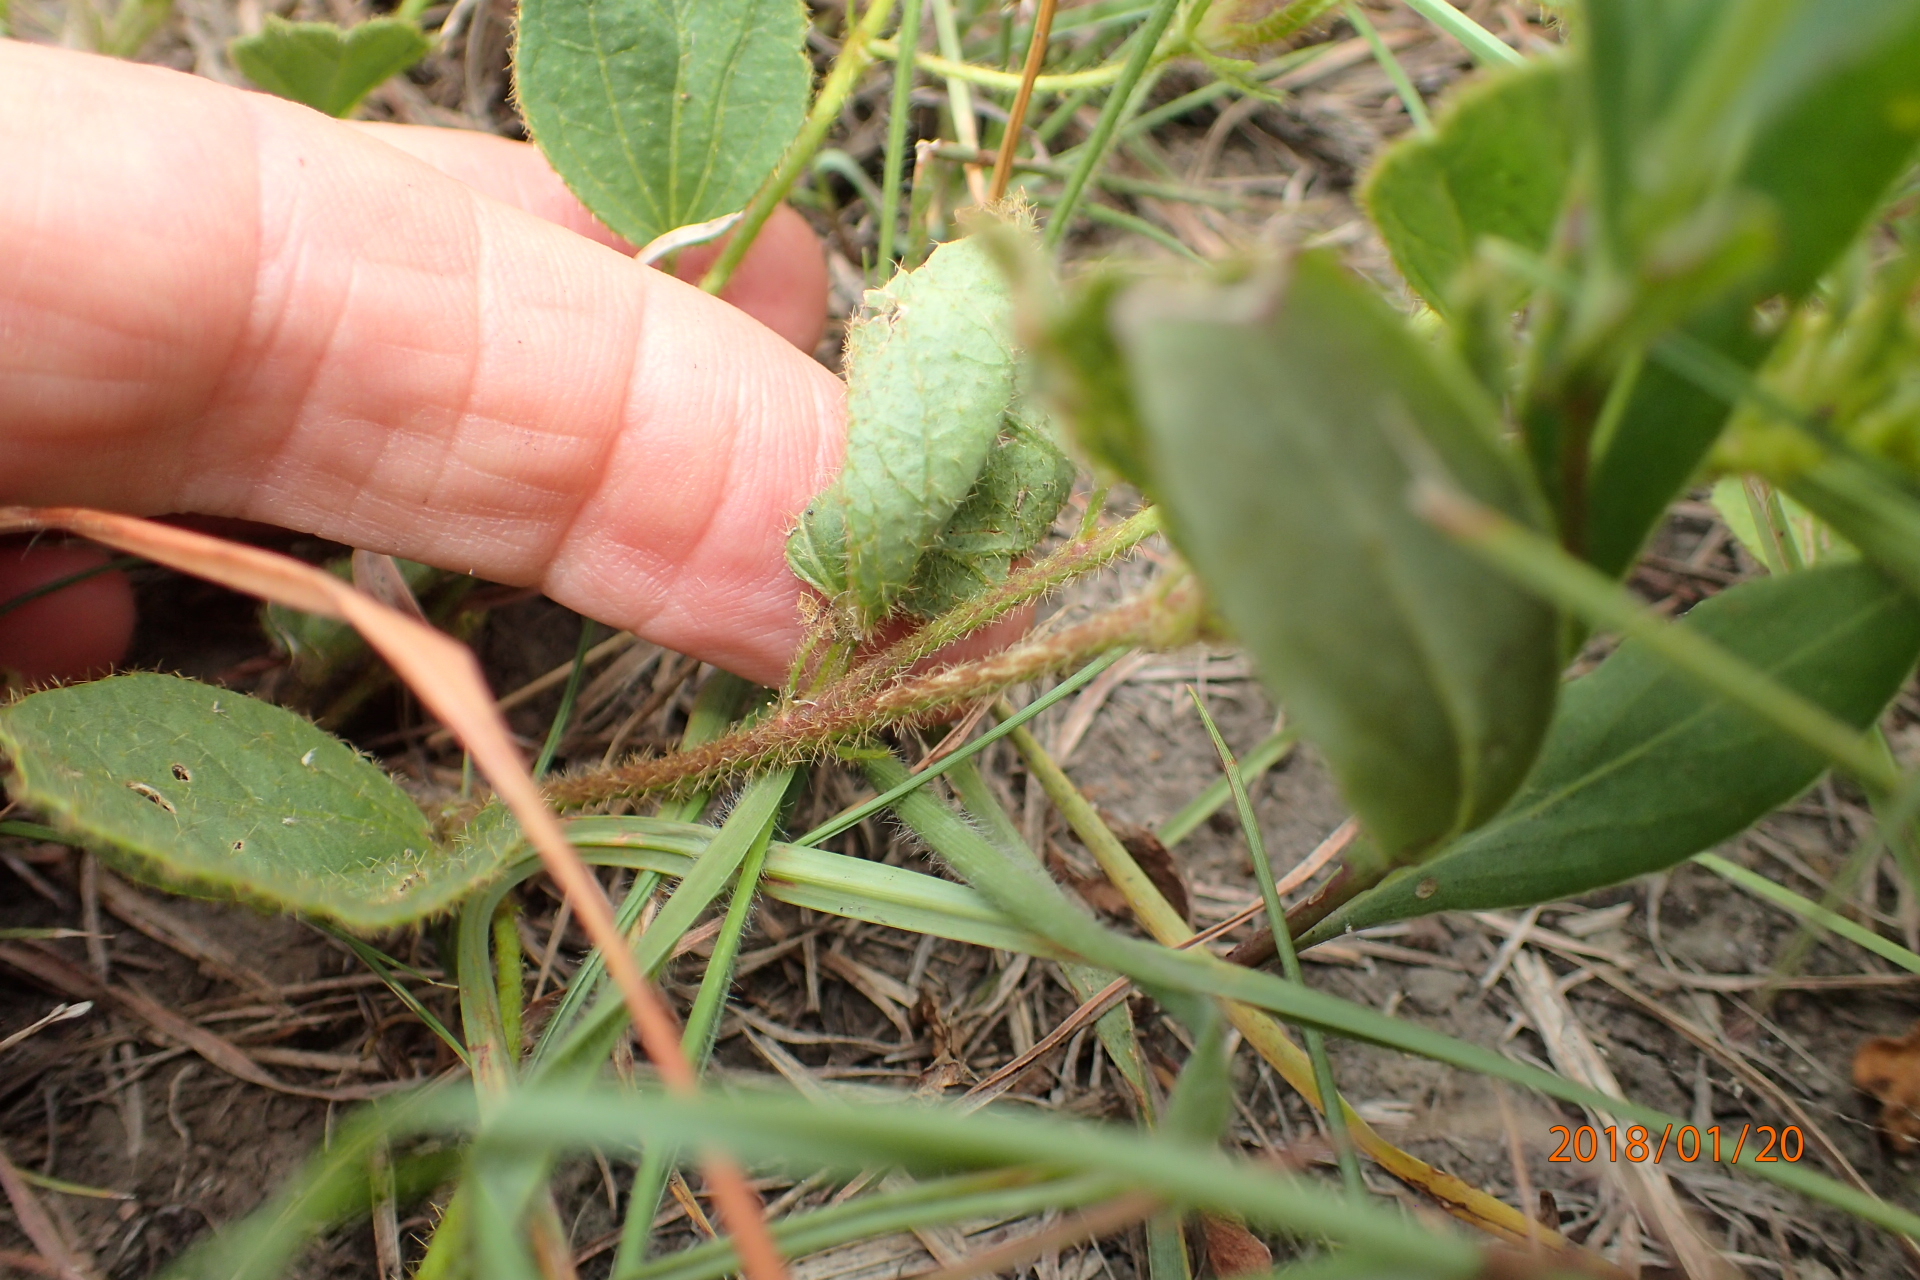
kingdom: Plantae
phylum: Tracheophyta
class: Magnoliopsida
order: Malvales
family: Malvaceae
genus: Hibiscus
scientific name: Hibiscus aethiopicus
